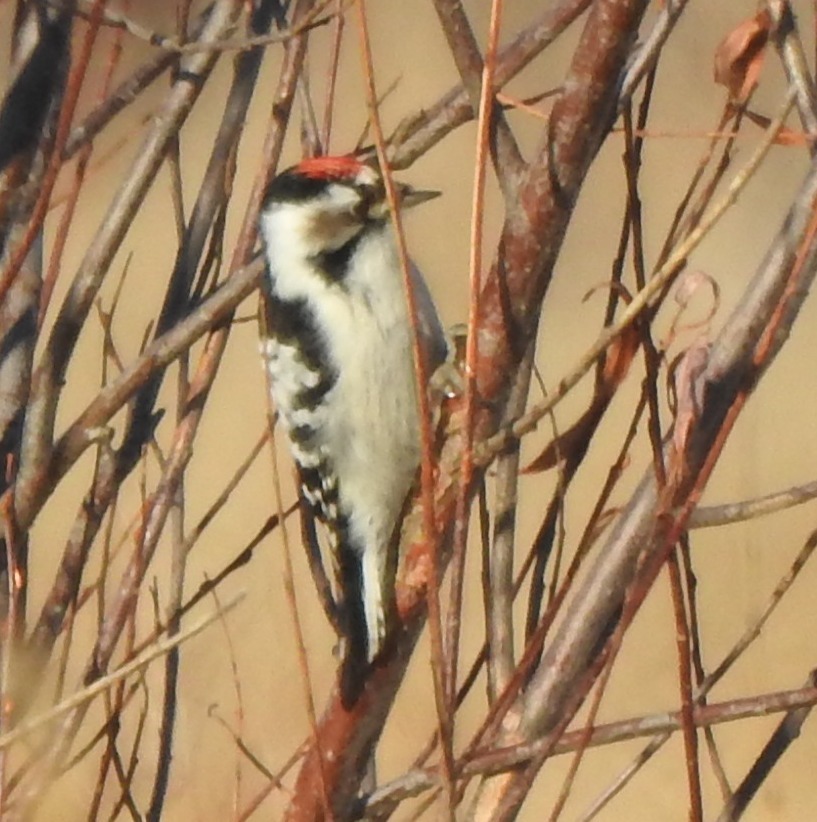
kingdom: Animalia
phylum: Chordata
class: Aves
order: Piciformes
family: Picidae
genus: Dryobates
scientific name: Dryobates minor
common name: Lesser spotted woodpecker
